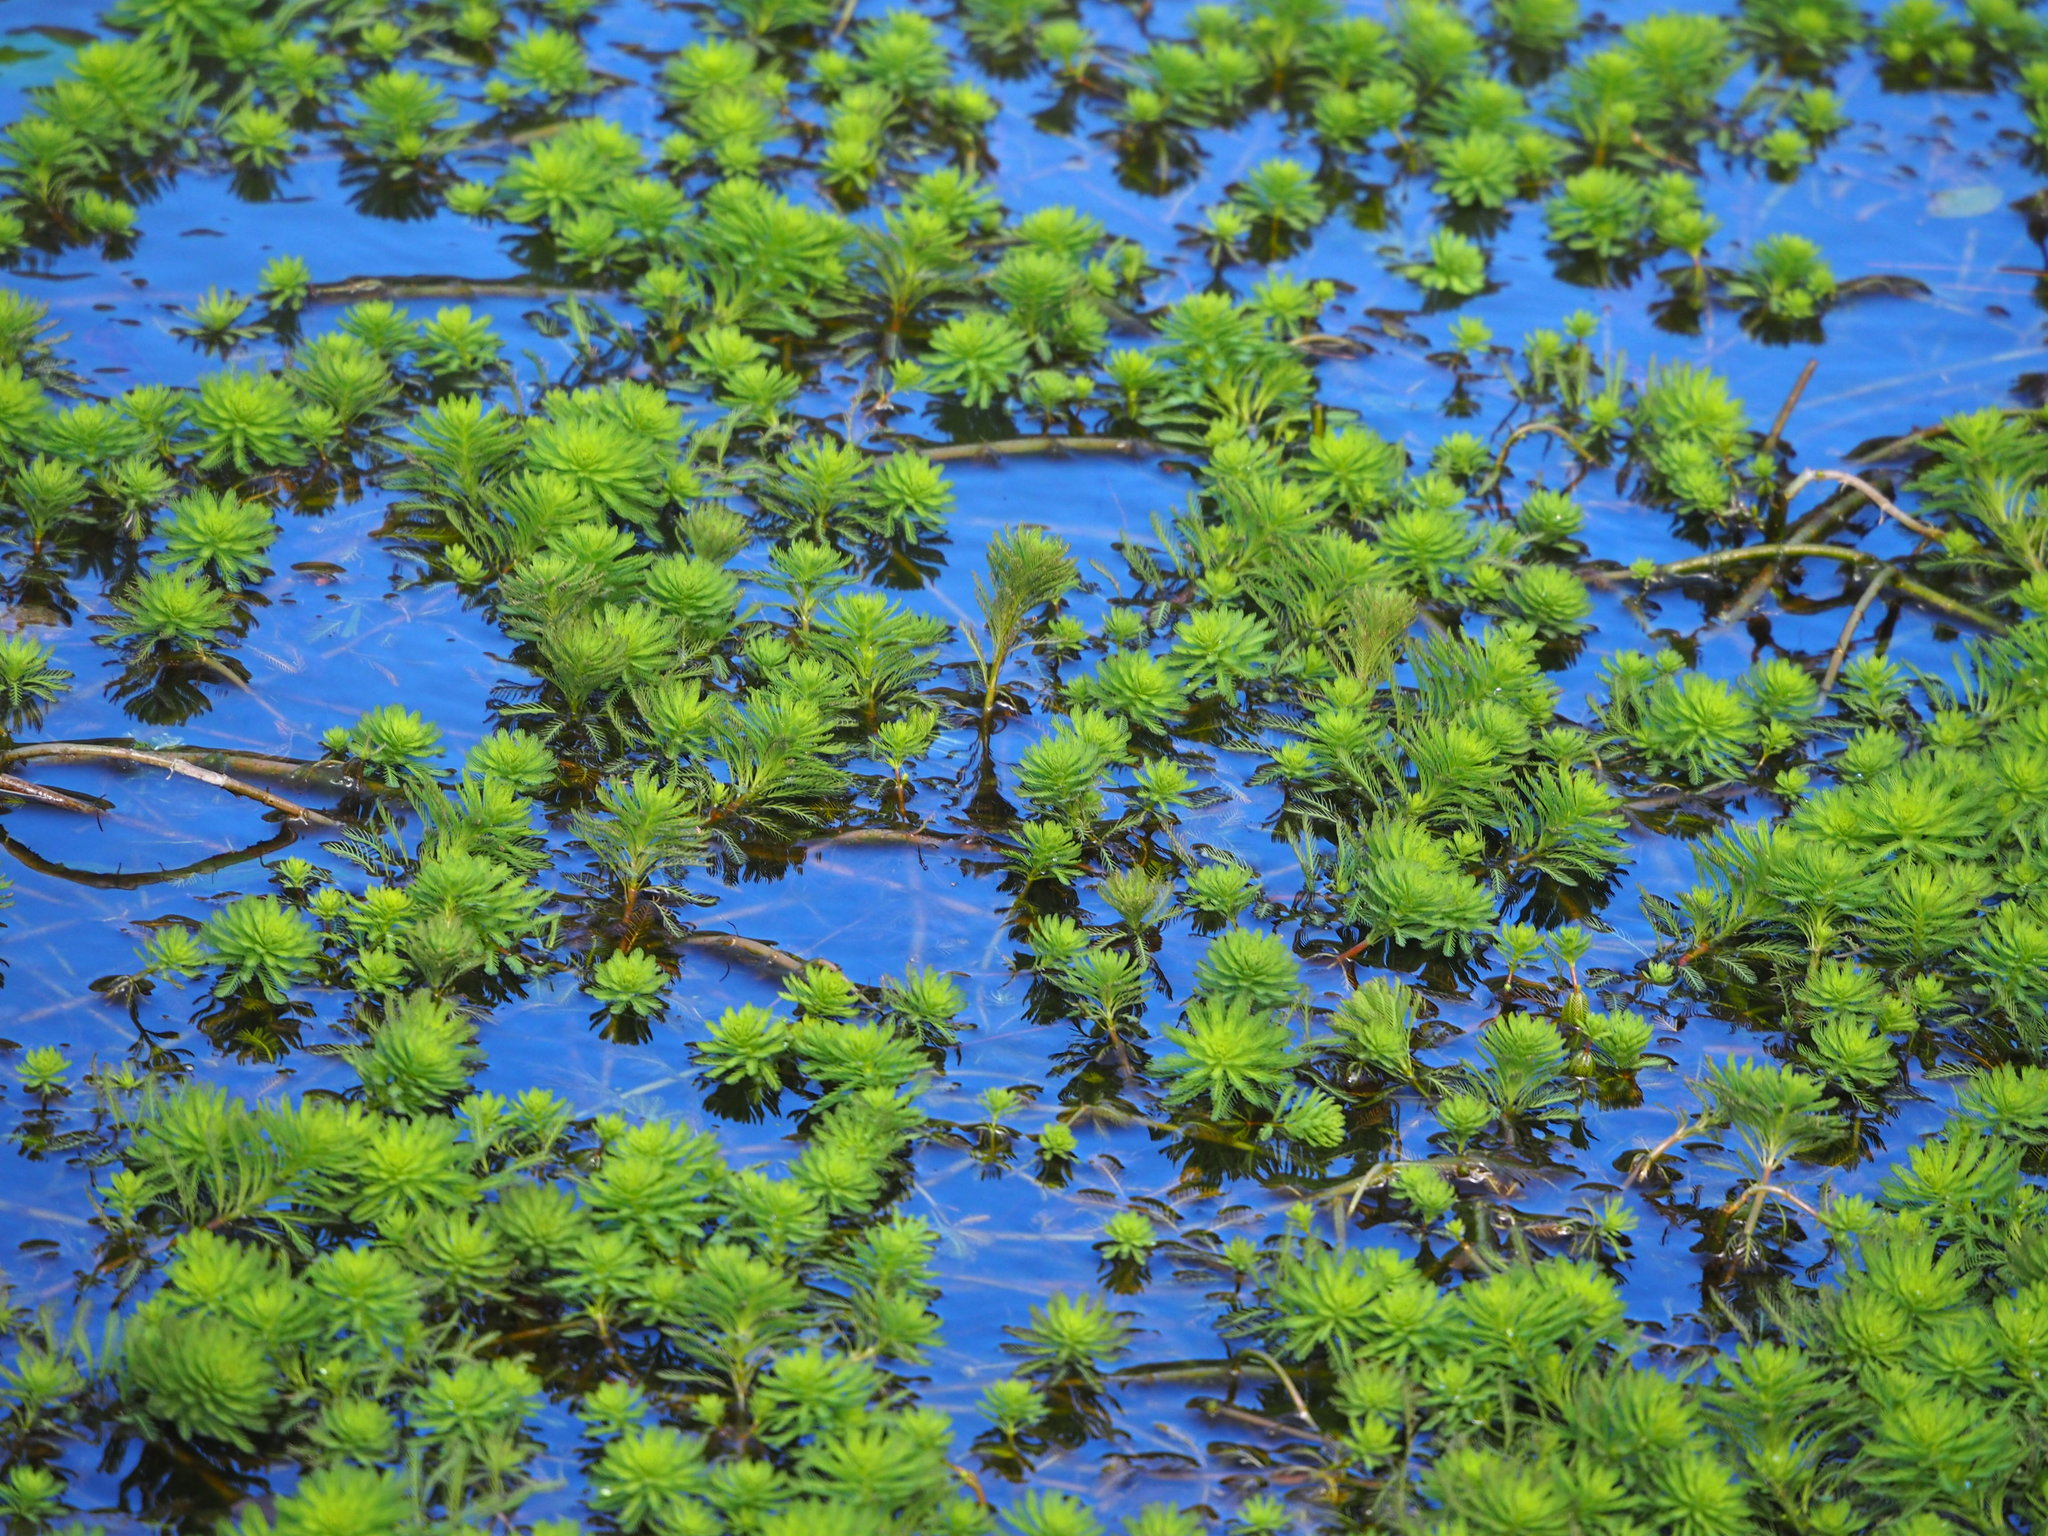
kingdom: Plantae
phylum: Tracheophyta
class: Magnoliopsida
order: Saxifragales
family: Haloragaceae
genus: Myriophyllum
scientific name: Myriophyllum aquaticum
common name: Parrot's feather
